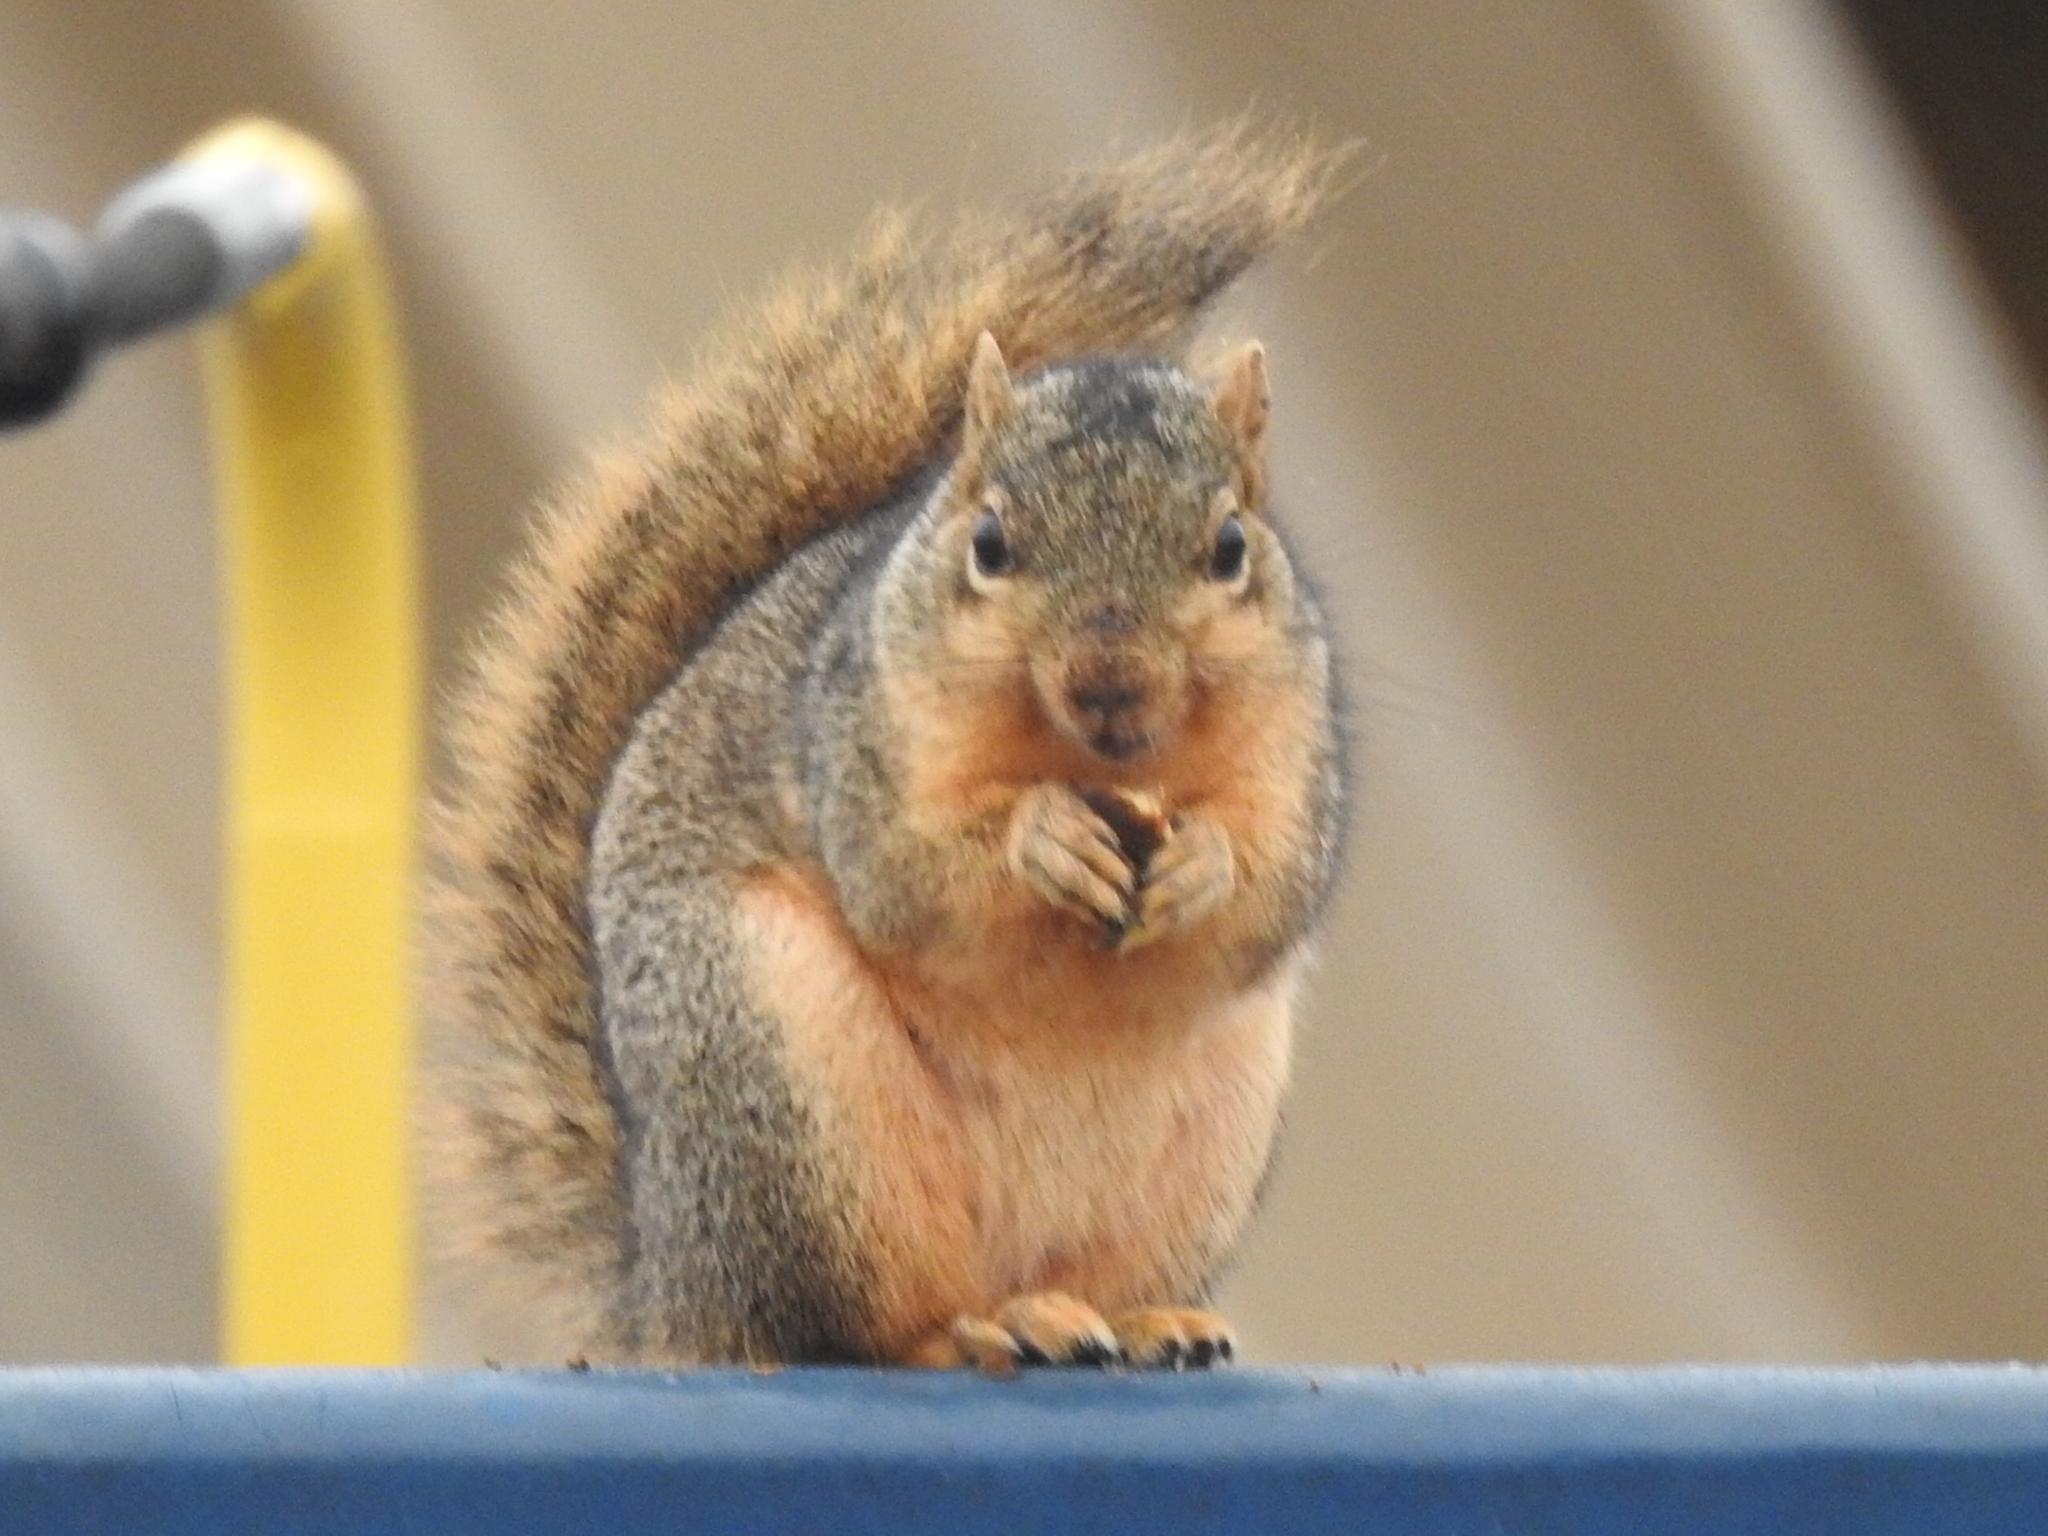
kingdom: Animalia
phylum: Chordata
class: Mammalia
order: Rodentia
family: Sciuridae
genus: Sciurus
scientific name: Sciurus niger
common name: Fox squirrel
